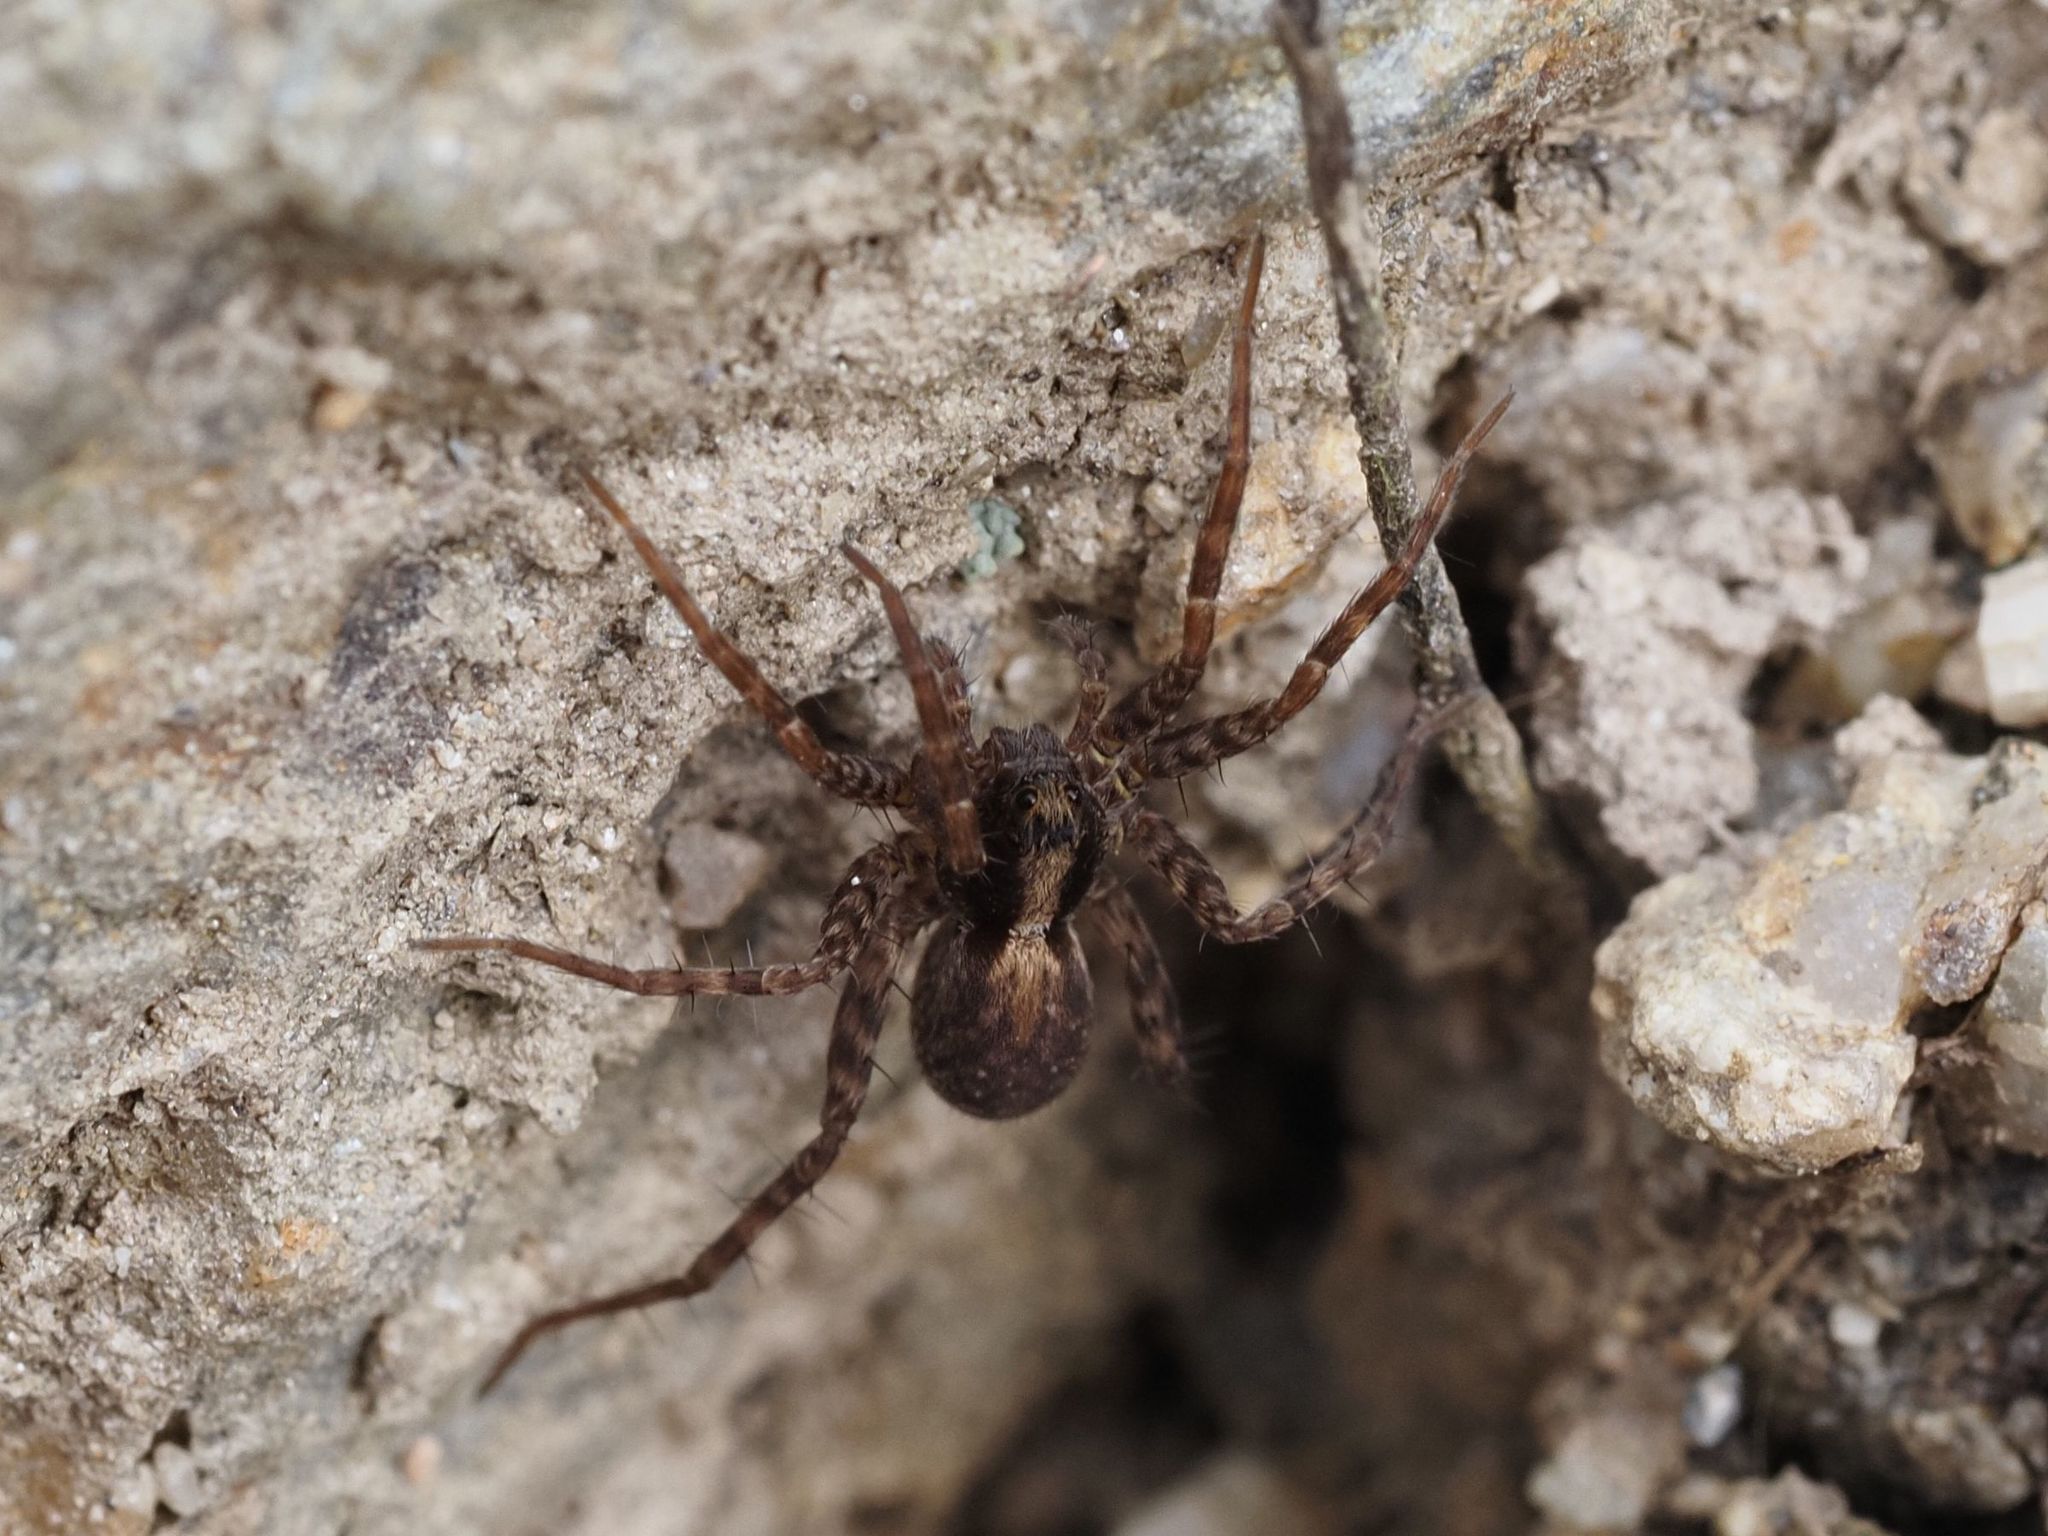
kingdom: Animalia
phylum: Arthropoda
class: Arachnida
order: Araneae
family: Lycosidae
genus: Pardosa
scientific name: Pardosa
